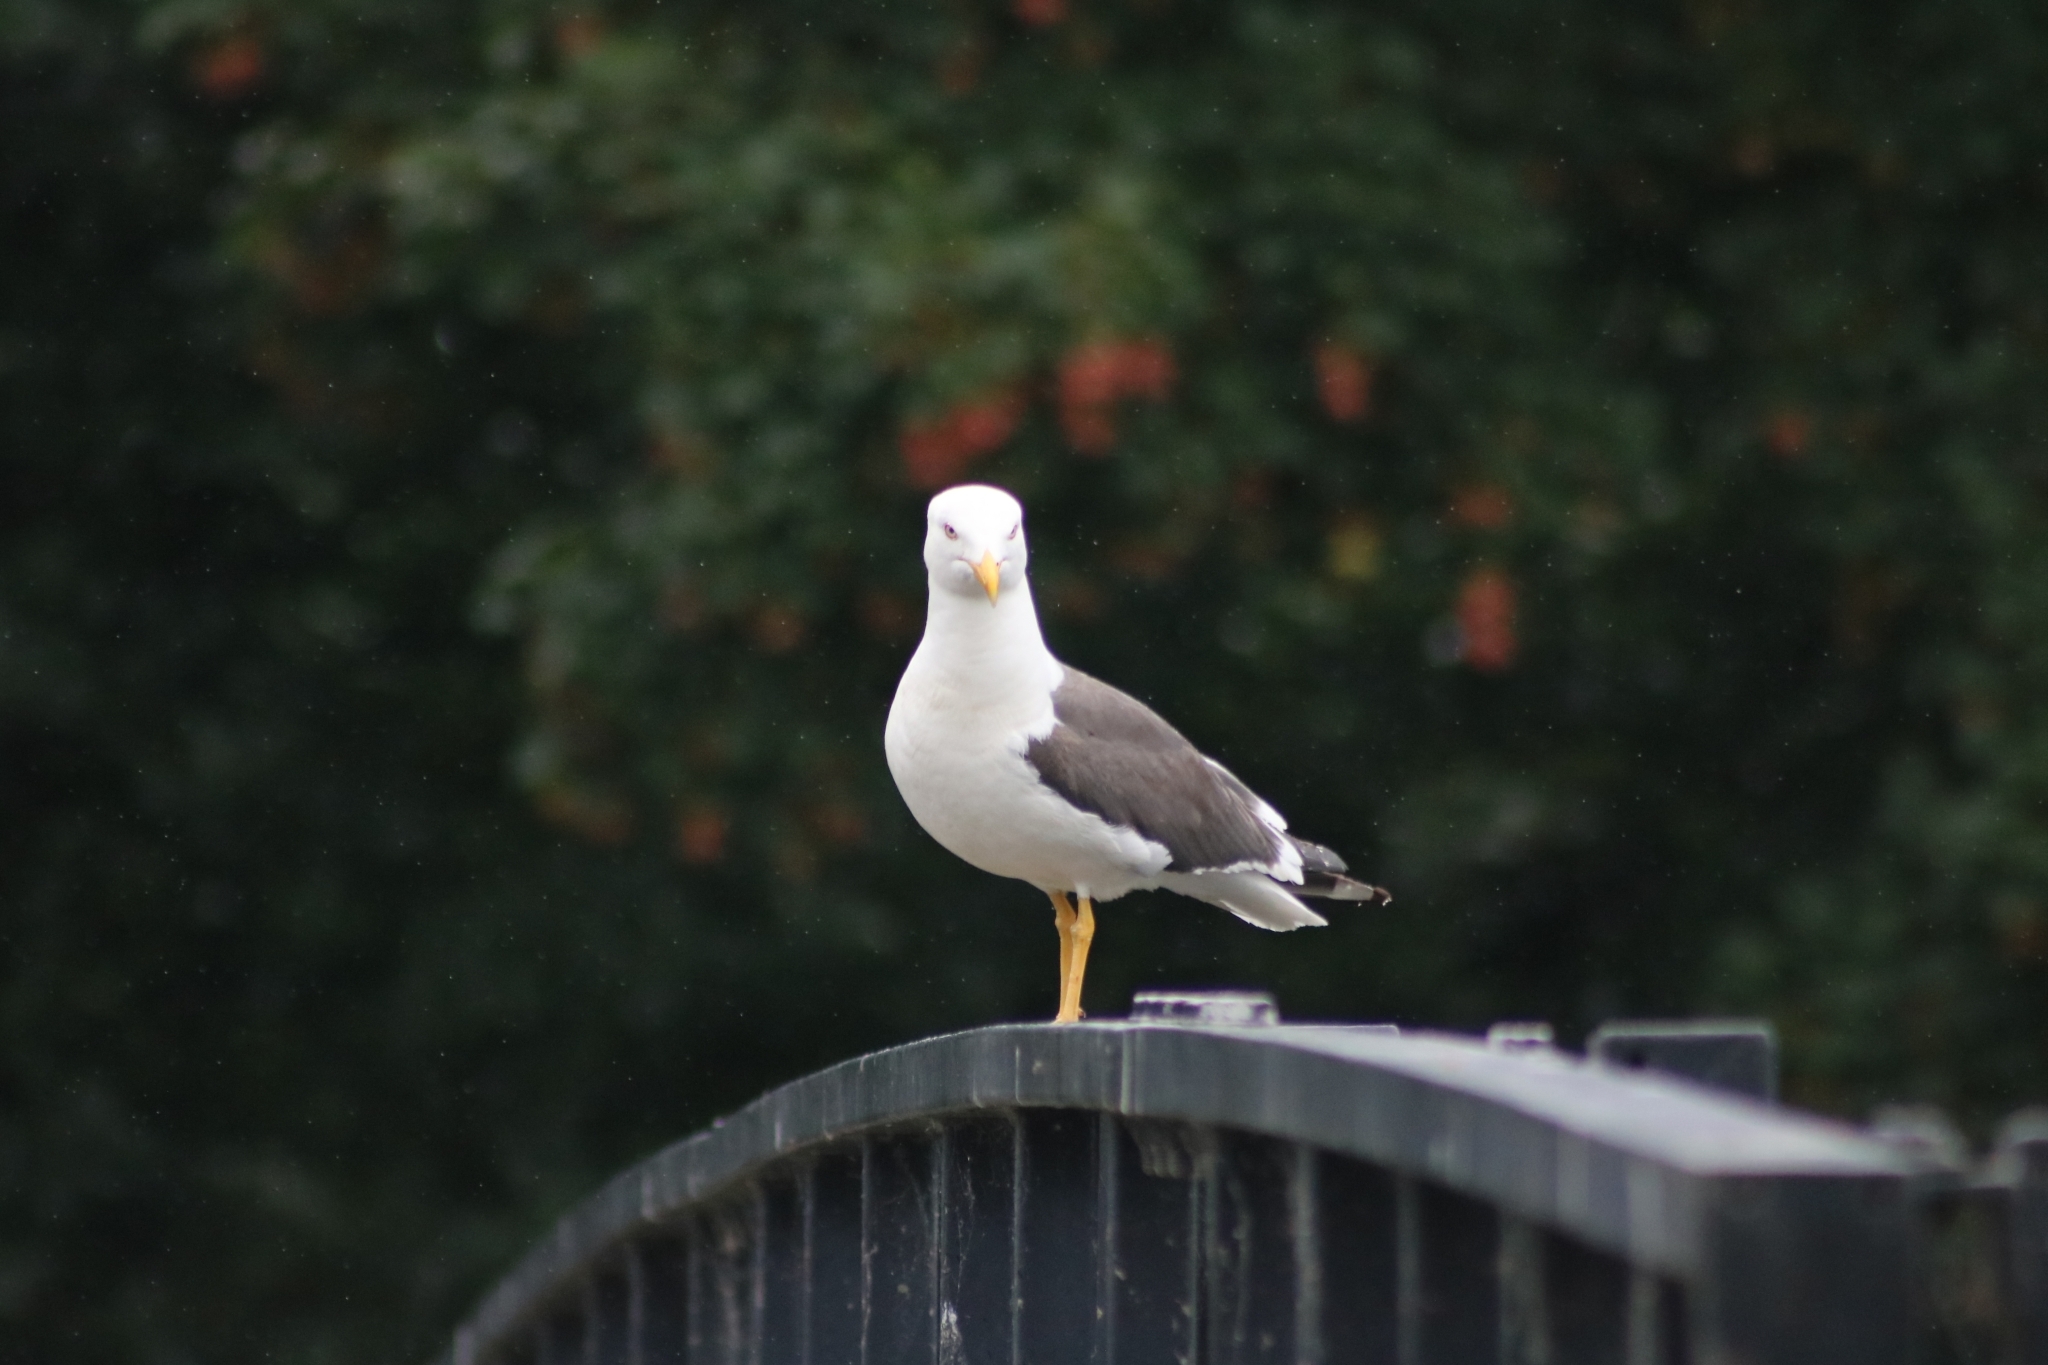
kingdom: Animalia
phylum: Chordata
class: Aves
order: Charadriiformes
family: Laridae
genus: Larus
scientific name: Larus fuscus
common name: Lesser black-backed gull
